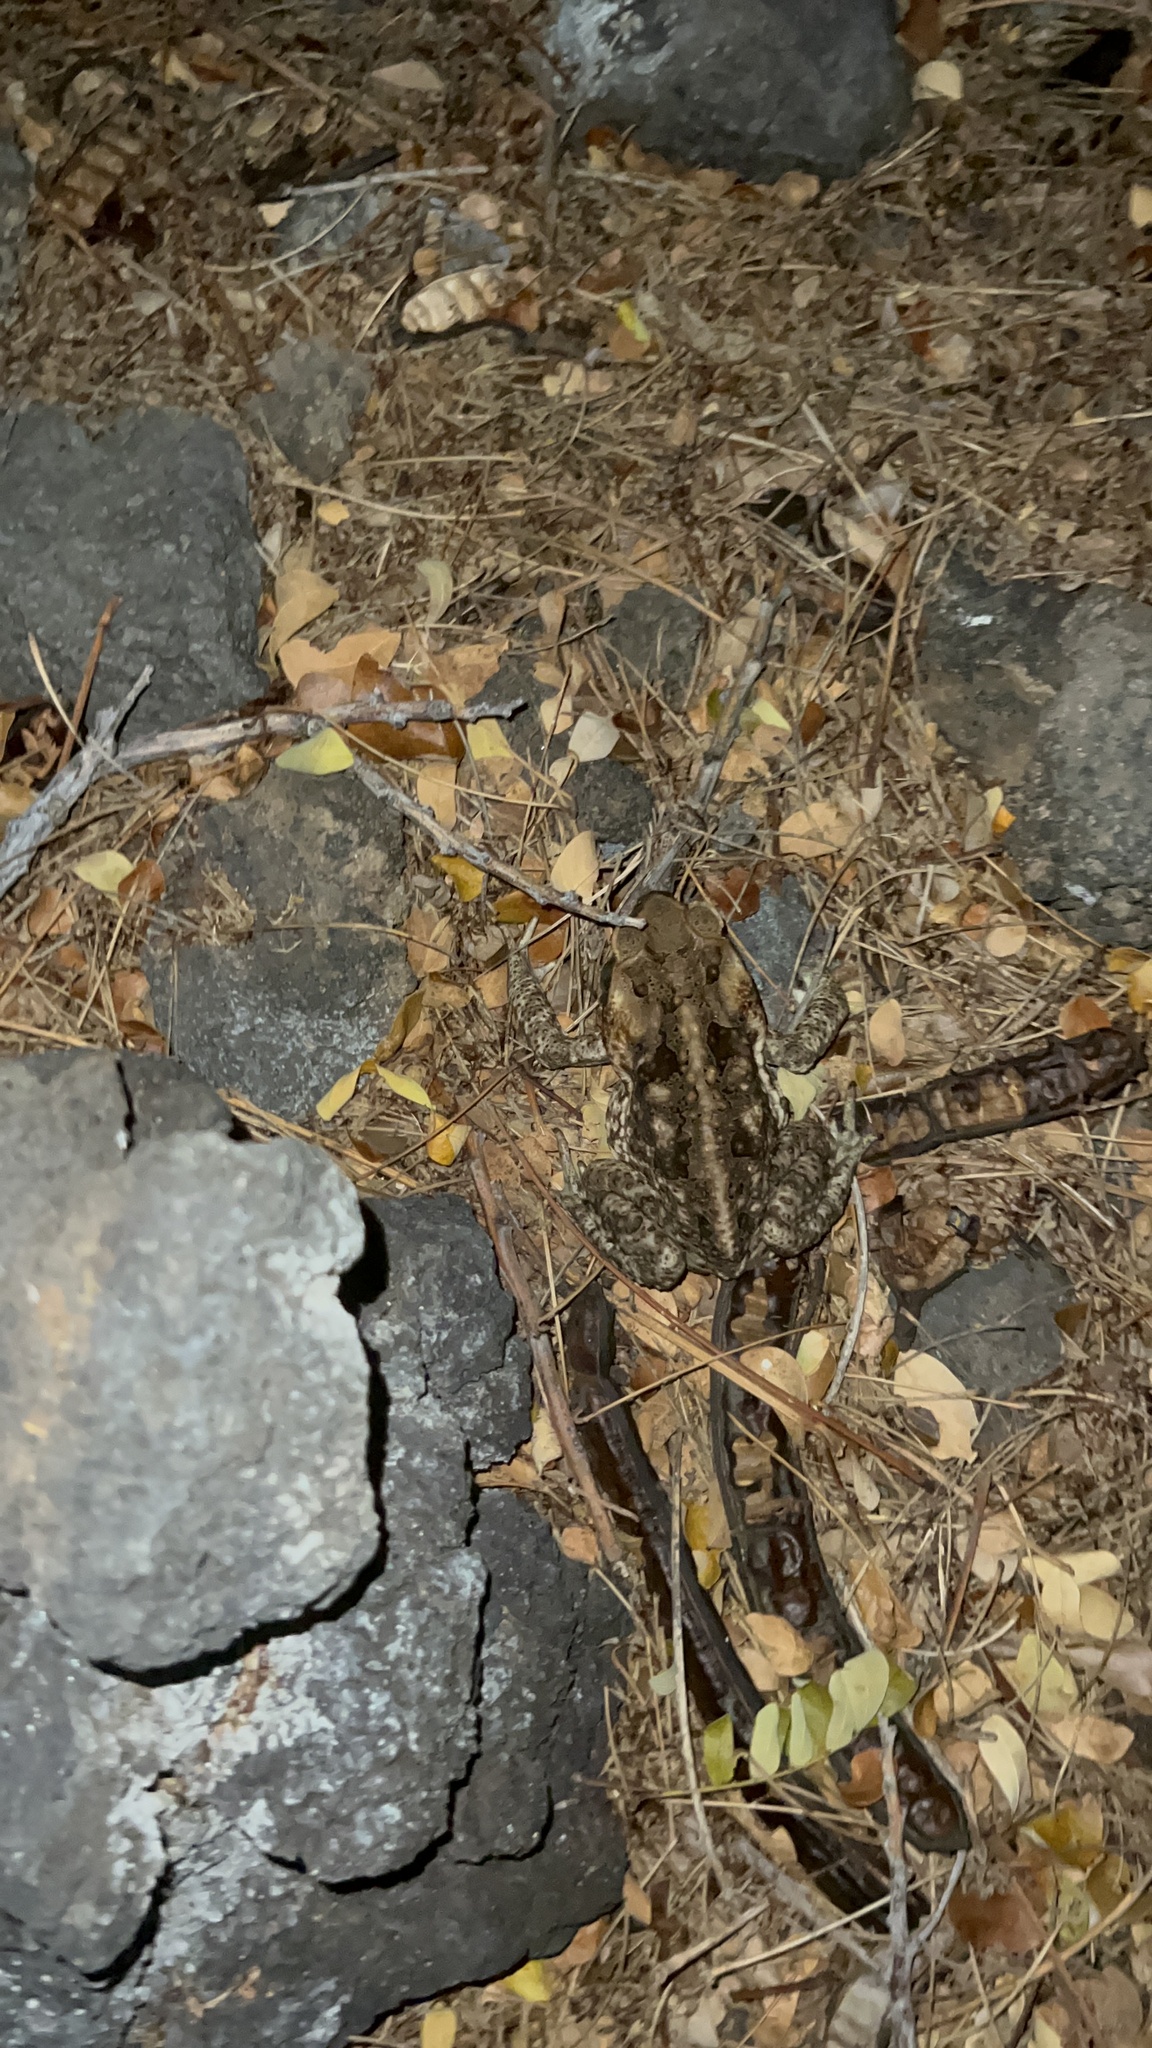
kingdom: Animalia
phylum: Chordata
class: Amphibia
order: Anura
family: Bufonidae
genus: Rhinella
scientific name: Rhinella marina
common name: Cane toad
